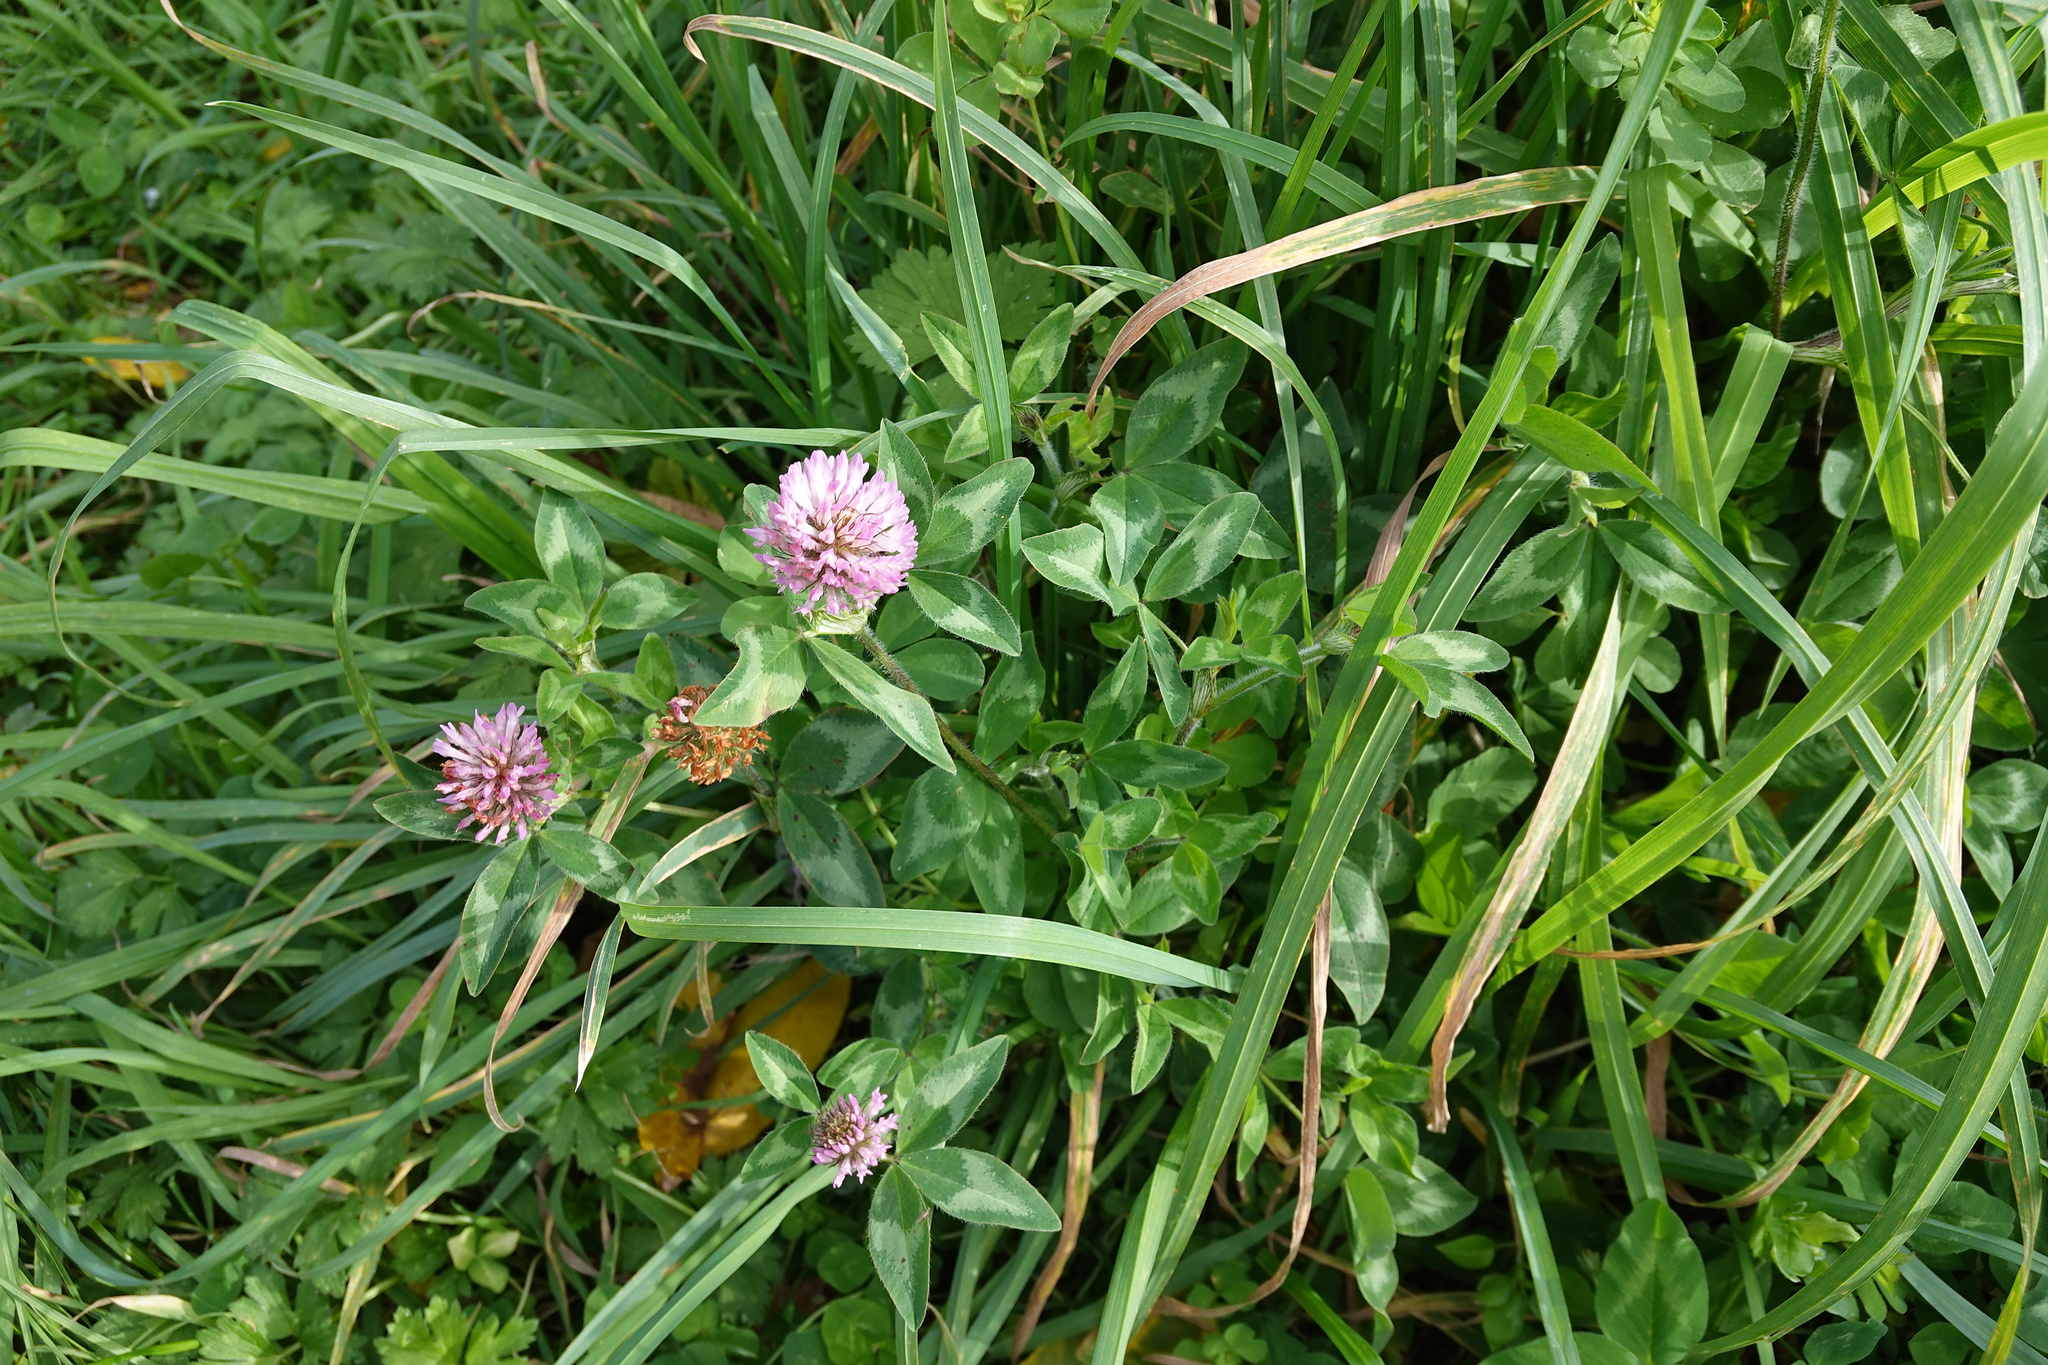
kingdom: Plantae
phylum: Tracheophyta
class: Magnoliopsida
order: Fabales
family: Fabaceae
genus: Trifolium
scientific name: Trifolium pratense
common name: Red clover
